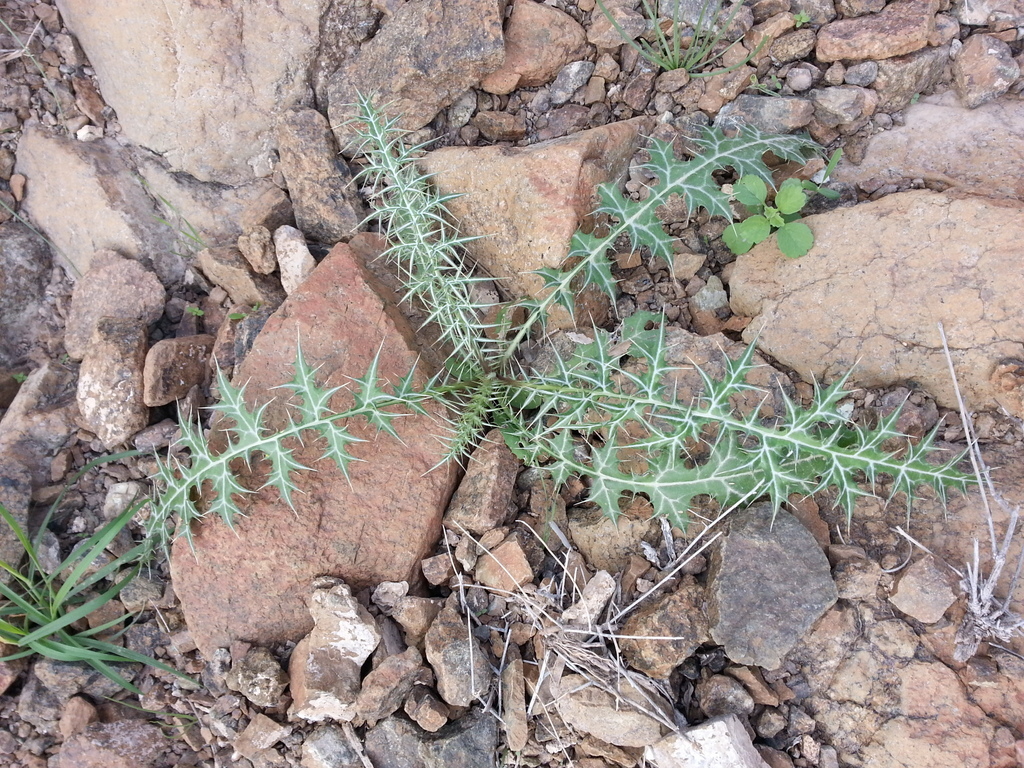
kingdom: Plantae
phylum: Tracheophyta
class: Magnoliopsida
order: Asterales
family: Asteraceae
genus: Echinops
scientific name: Echinops erinaceus
